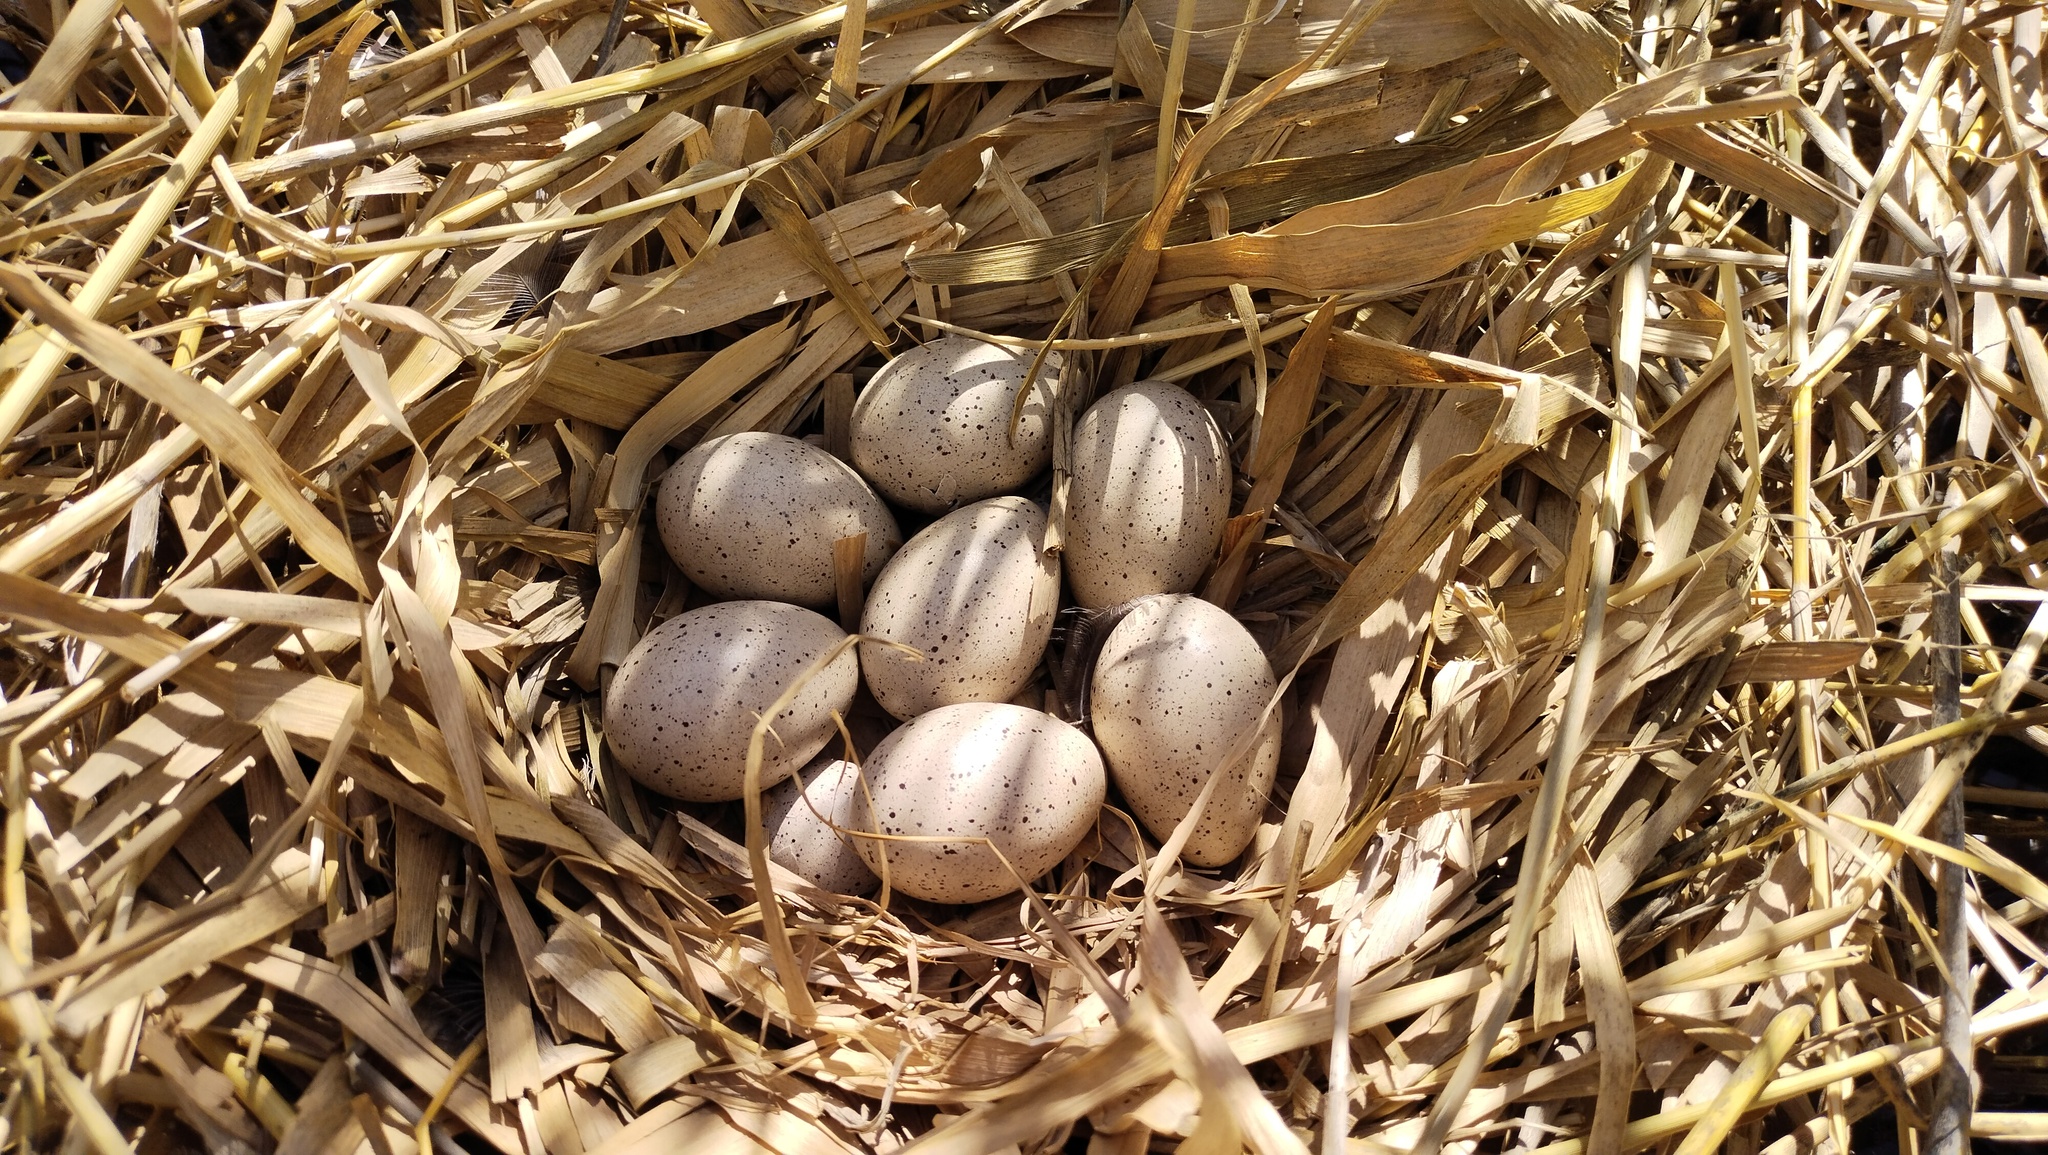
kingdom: Animalia
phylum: Chordata
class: Aves
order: Gruiformes
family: Rallidae
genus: Fulica
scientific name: Fulica atra
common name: Eurasian coot
